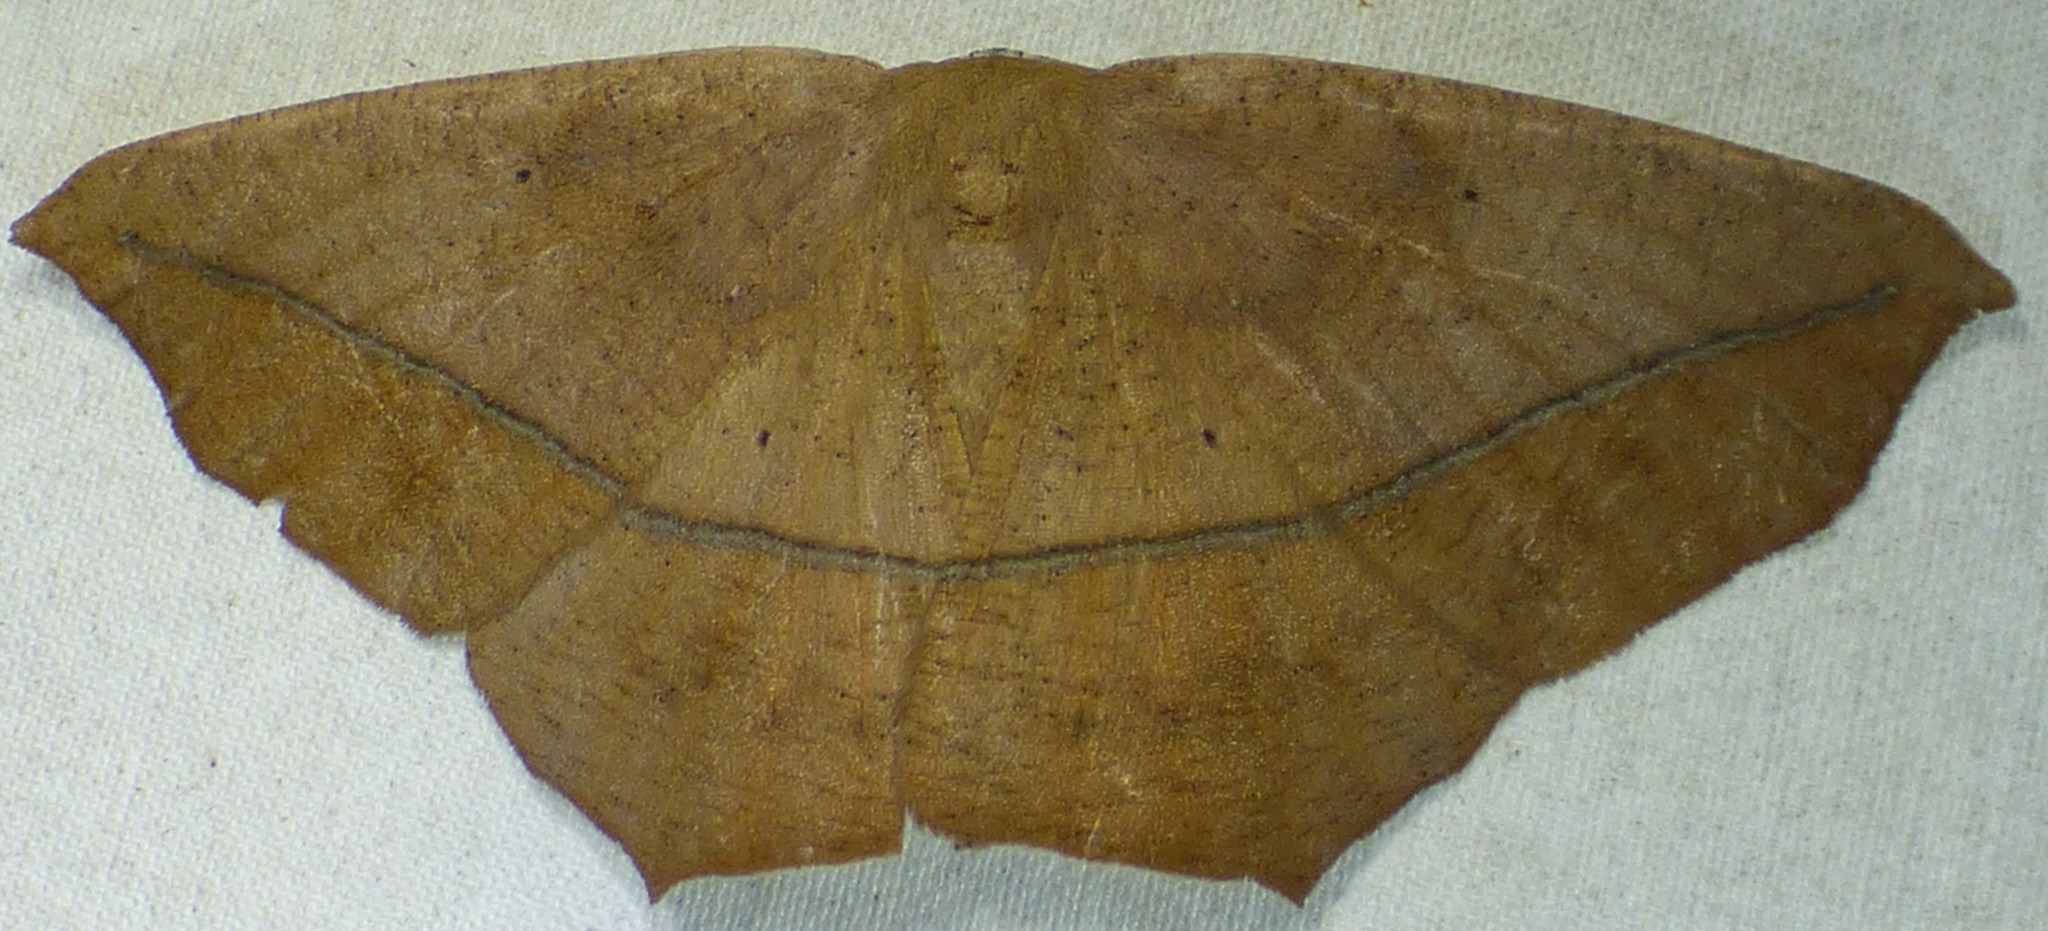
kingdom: Animalia
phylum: Arthropoda
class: Insecta
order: Lepidoptera
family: Geometridae
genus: Prochoerodes
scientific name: Prochoerodes lineola
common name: Large maple spanworm
